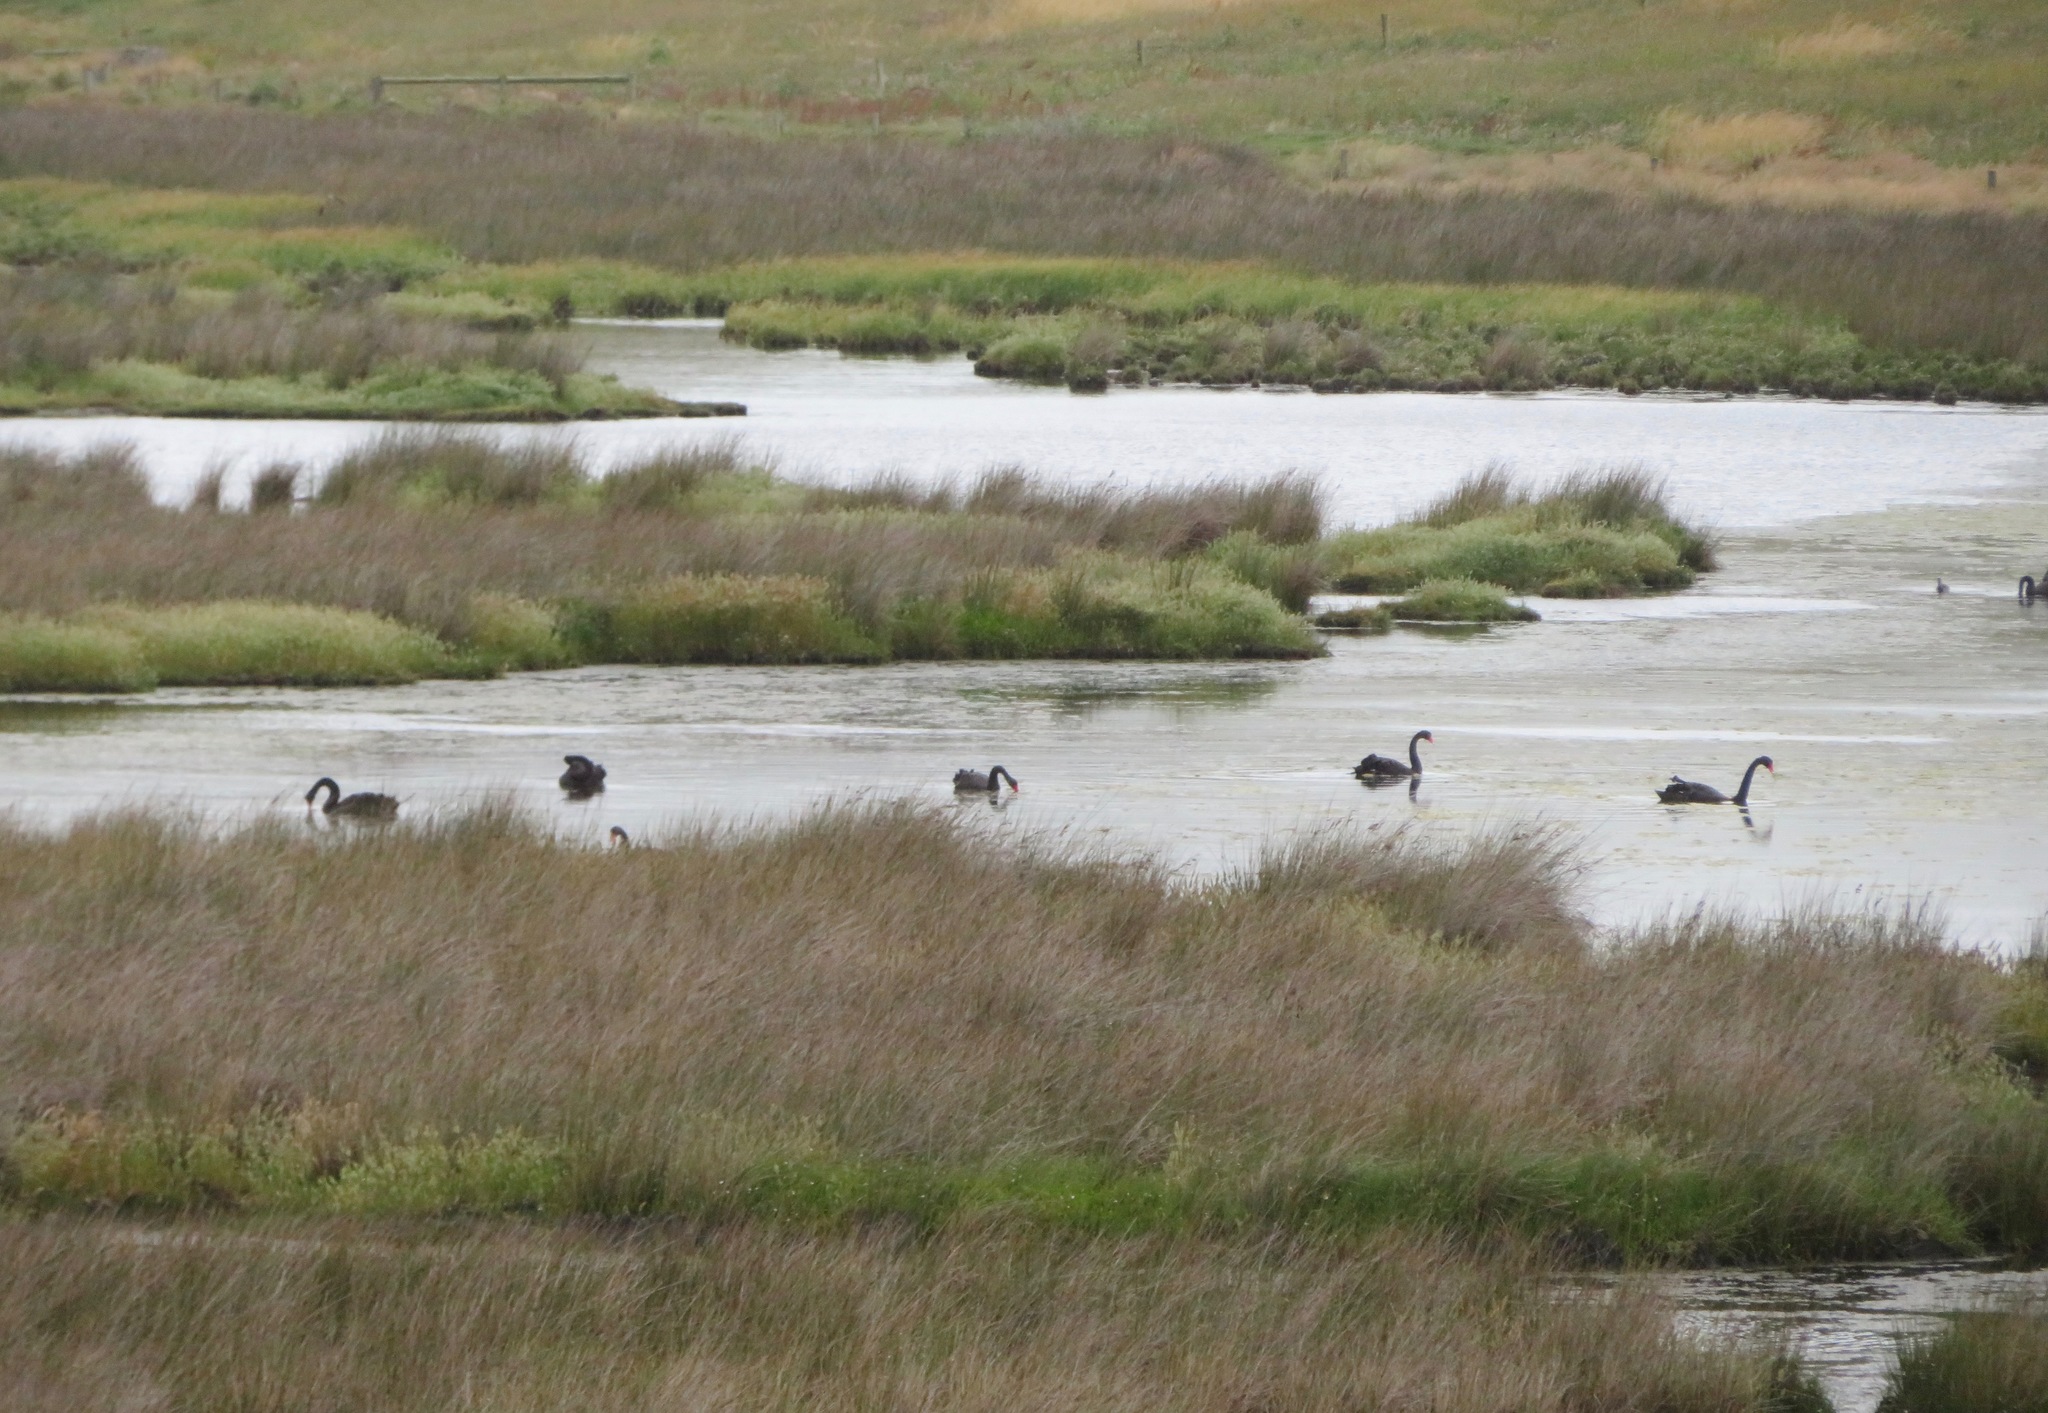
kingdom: Animalia
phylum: Chordata
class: Aves
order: Anseriformes
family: Anatidae
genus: Cygnus
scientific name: Cygnus atratus
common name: Black swan
